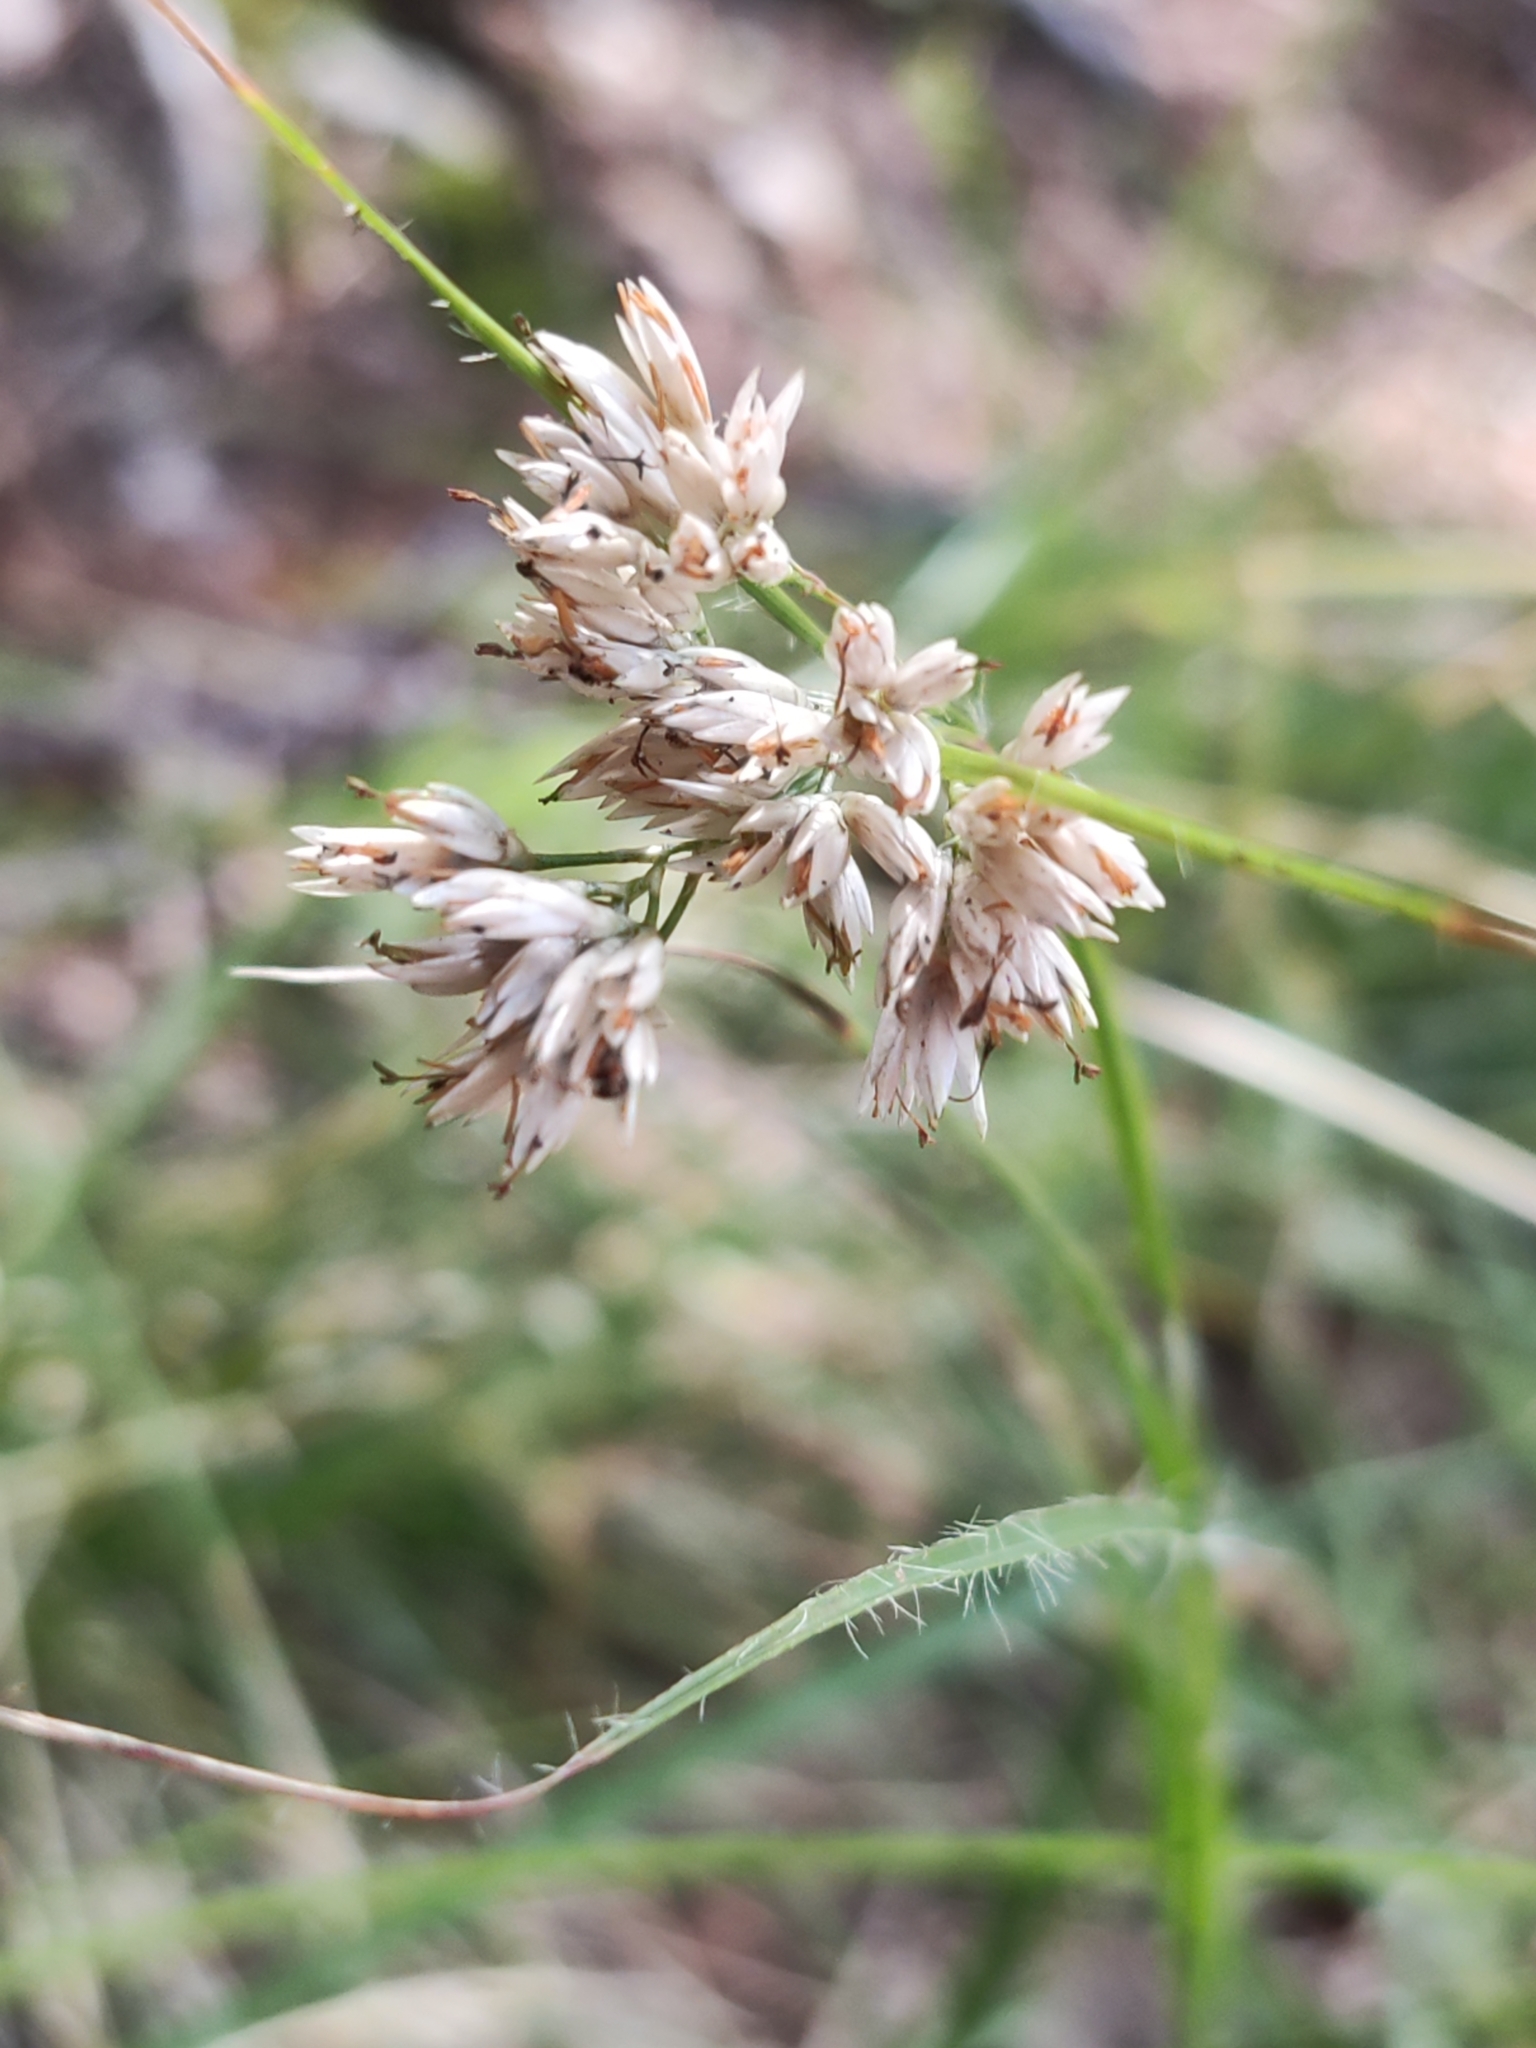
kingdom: Plantae
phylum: Tracheophyta
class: Liliopsida
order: Poales
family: Juncaceae
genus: Luzula
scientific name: Luzula nivea
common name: Snow-white wood-rush
